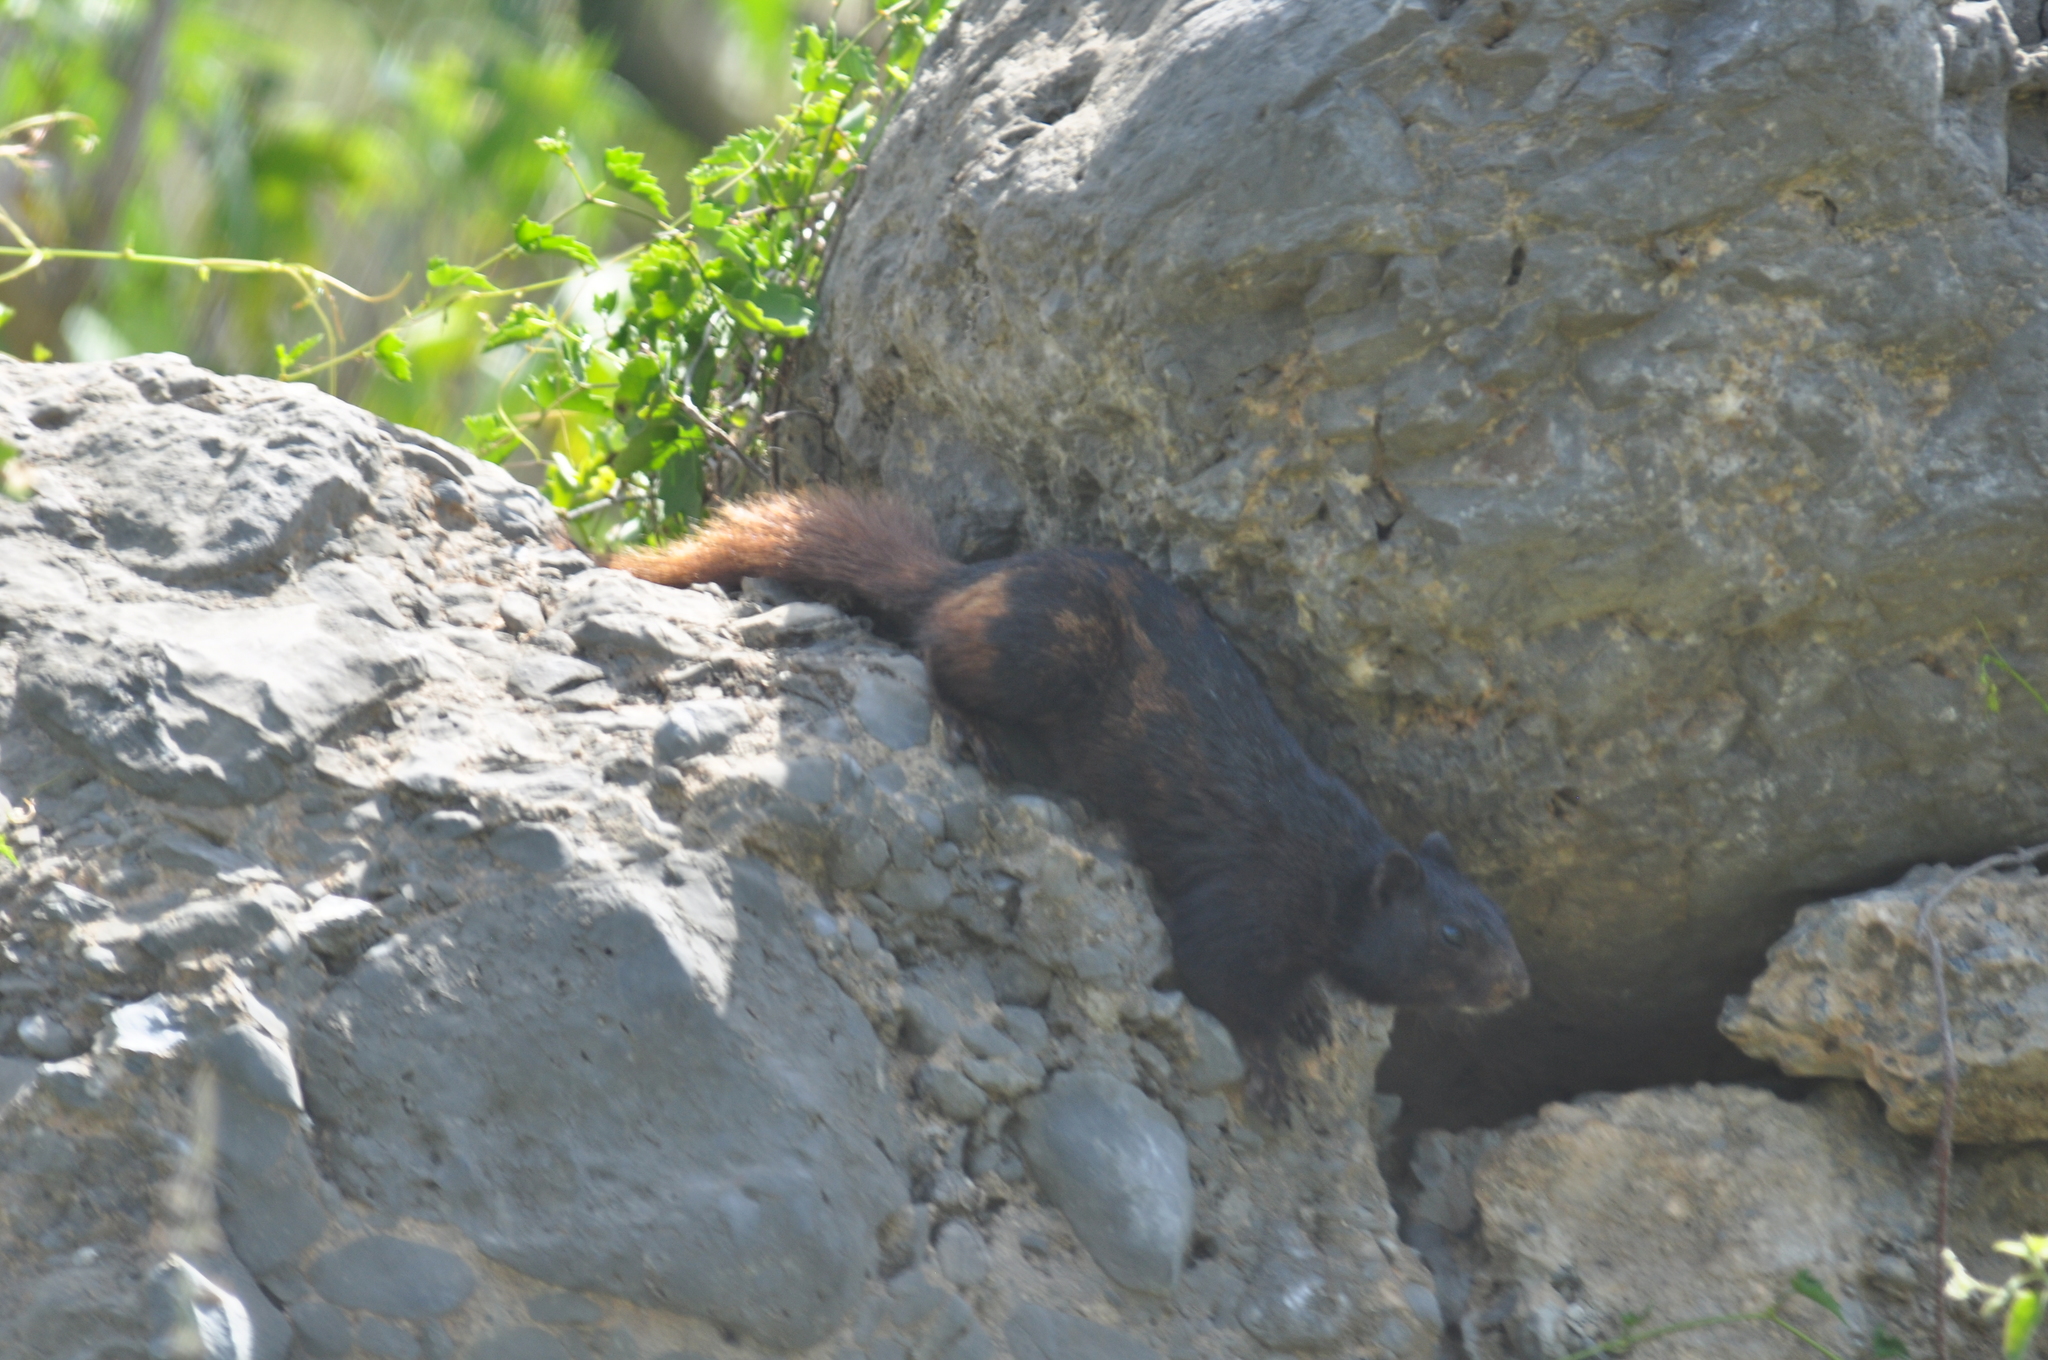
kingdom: Animalia
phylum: Chordata
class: Mammalia
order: Rodentia
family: Sciuridae
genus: Otospermophilus
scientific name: Otospermophilus variegatus
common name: Rock squirrel
